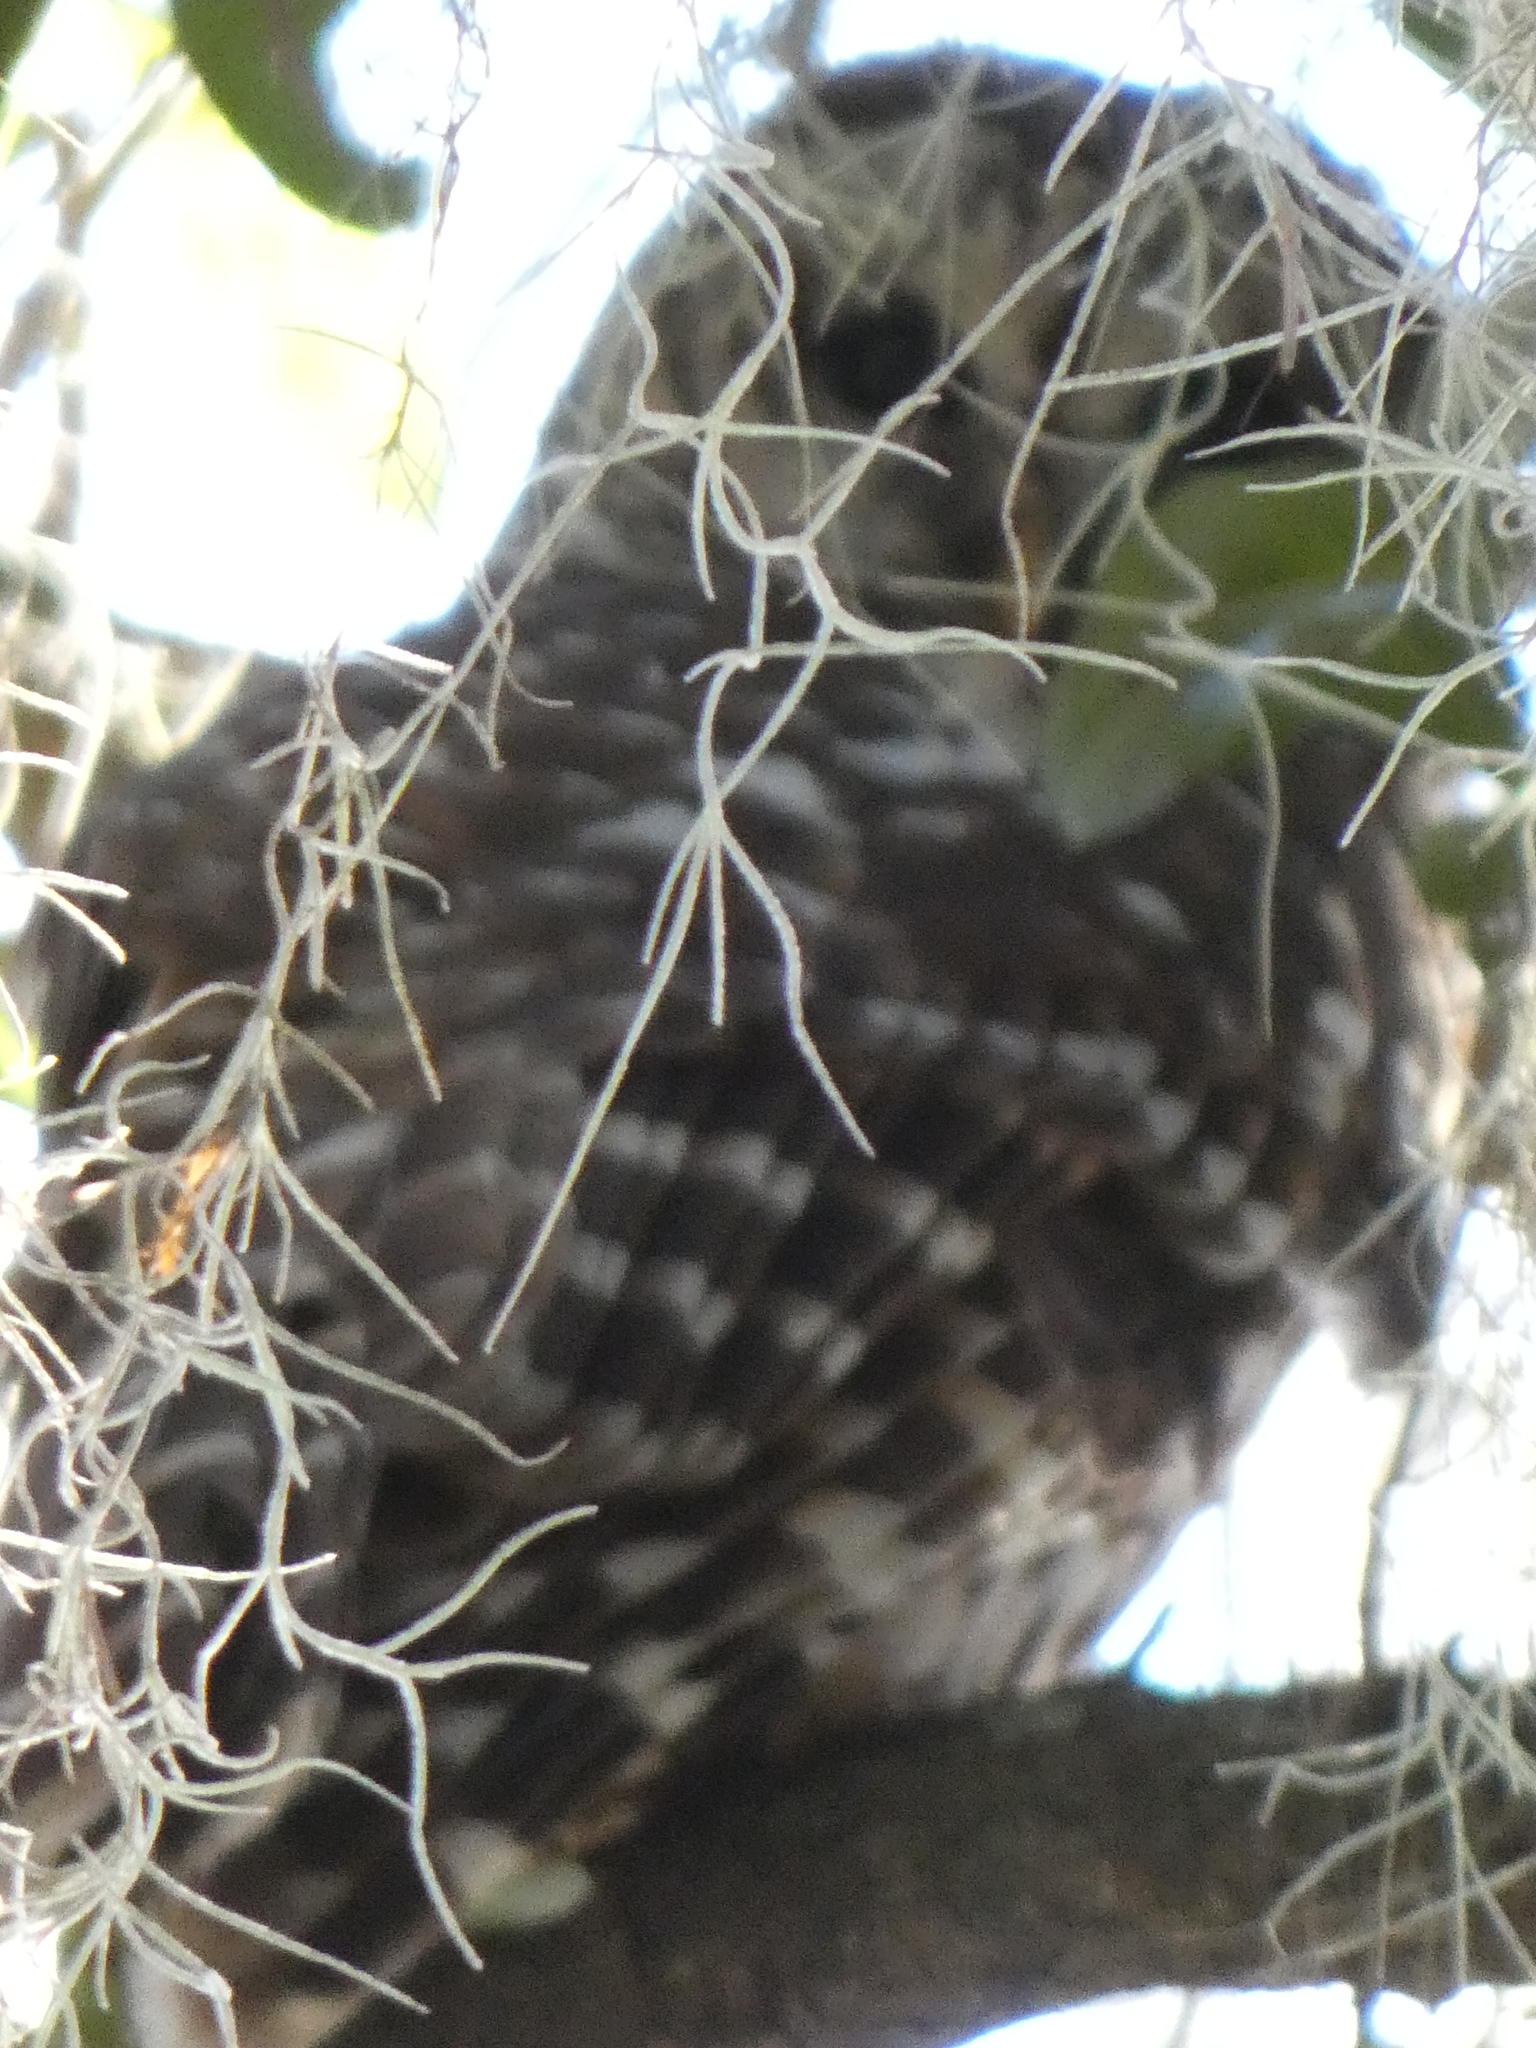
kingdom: Animalia
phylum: Chordata
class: Aves
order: Strigiformes
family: Strigidae
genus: Strix
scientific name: Strix varia
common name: Barred owl
